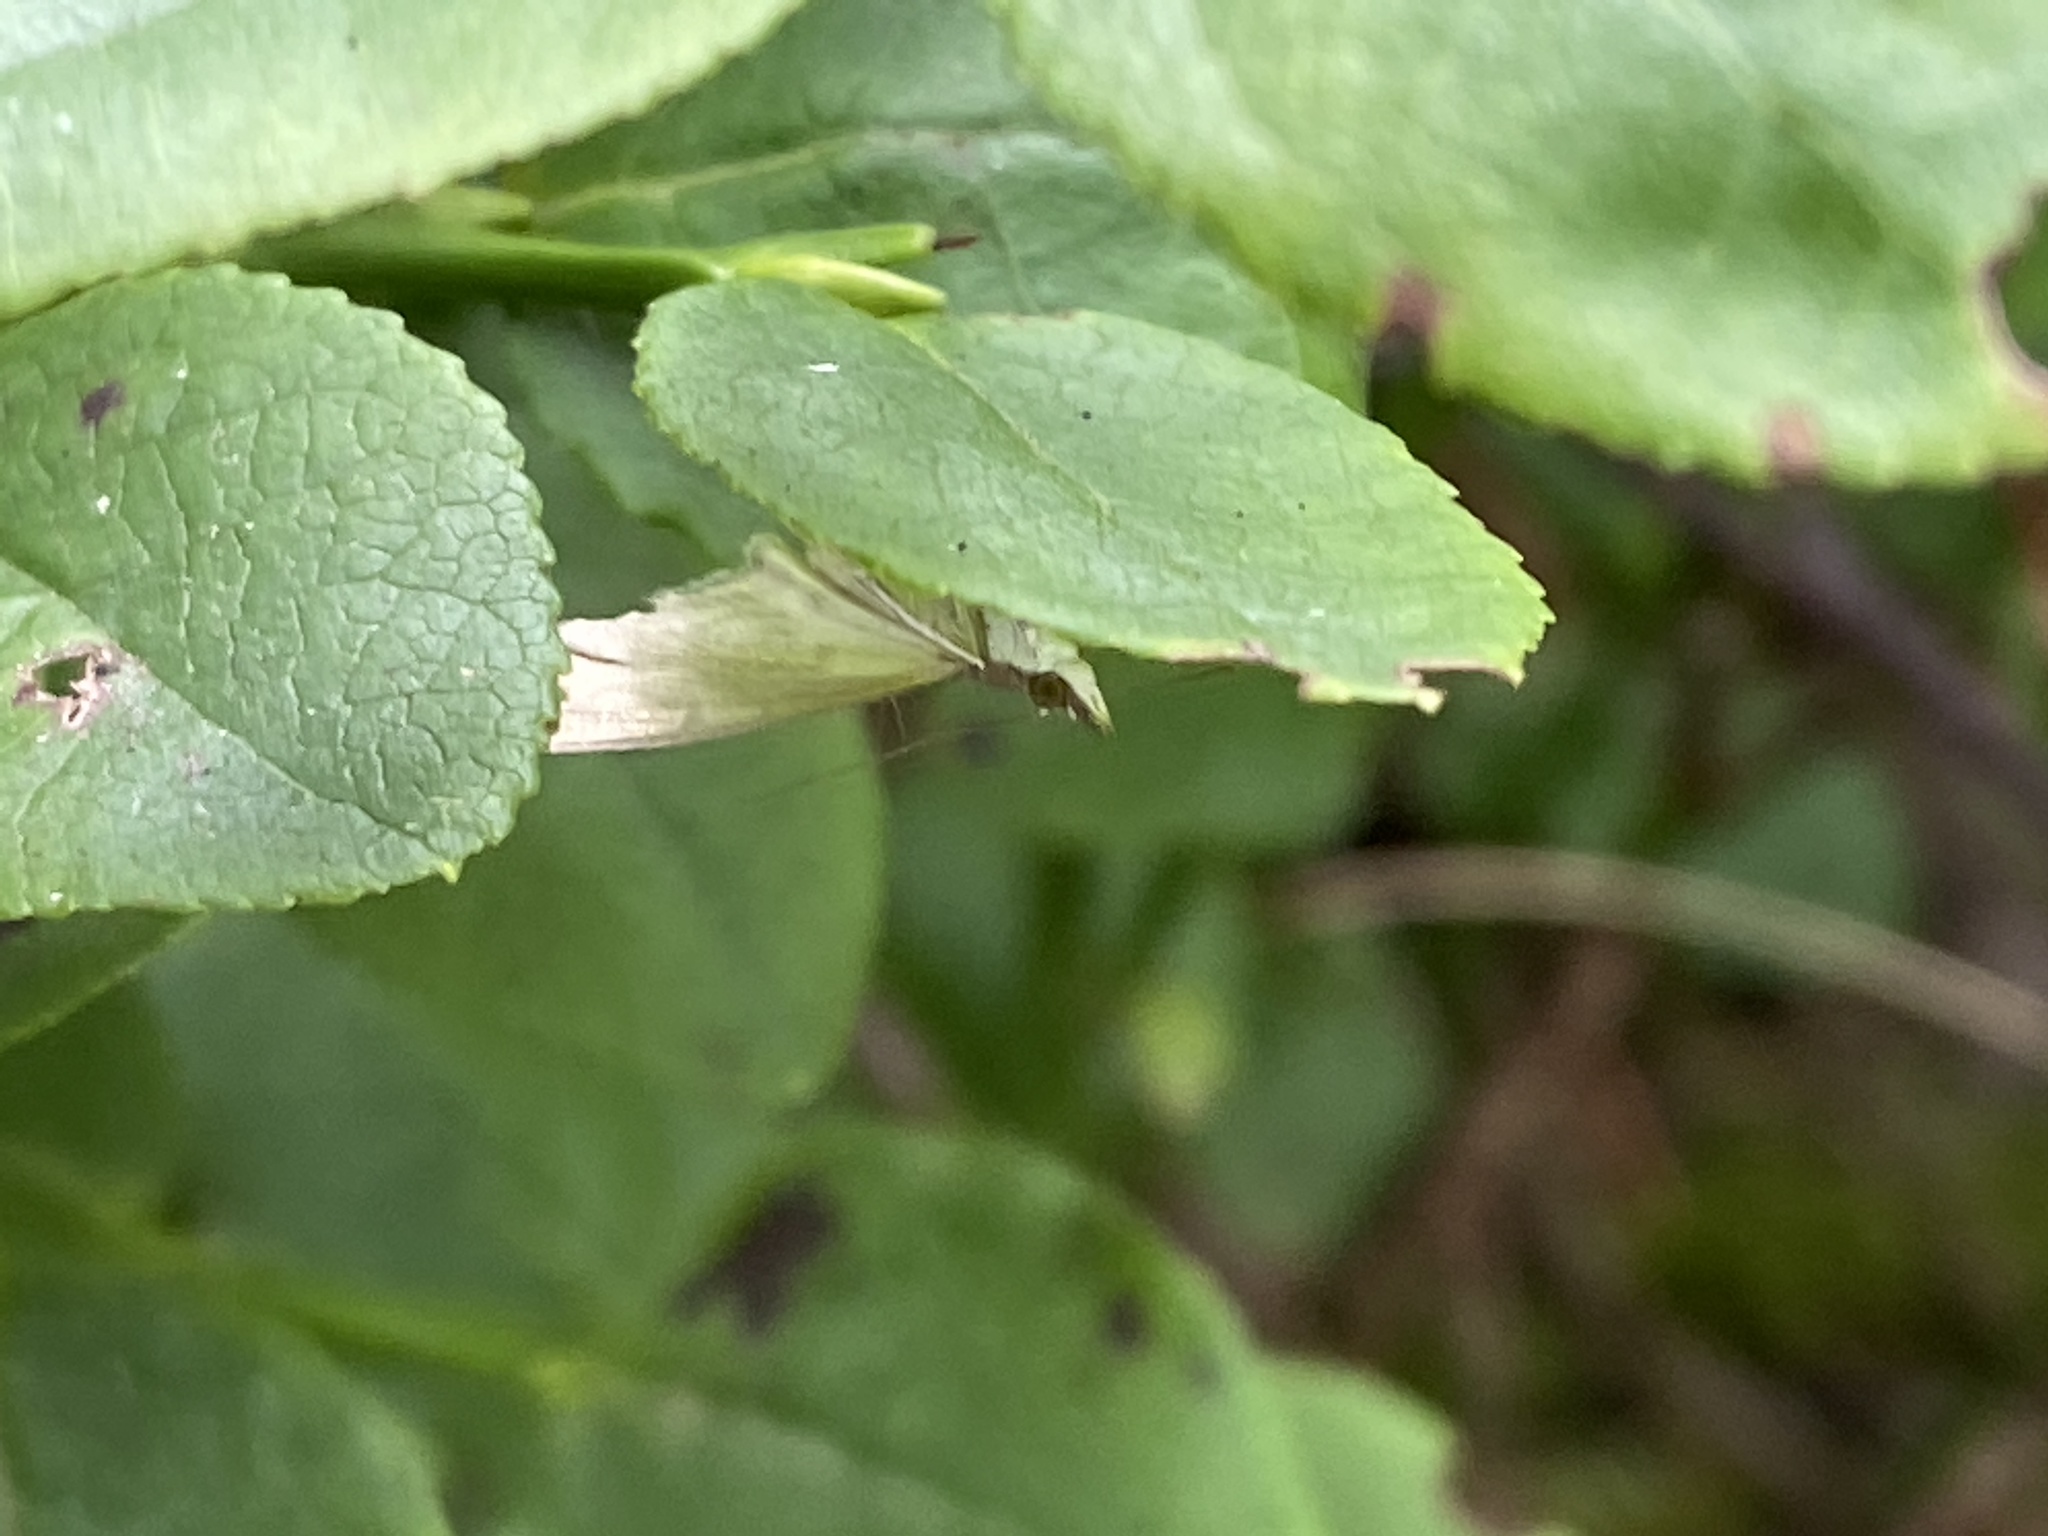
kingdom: Animalia
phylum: Arthropoda
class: Insecta
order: Lepidoptera
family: Crambidae
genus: Patania
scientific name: Patania ruralis
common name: Mother of pearl
